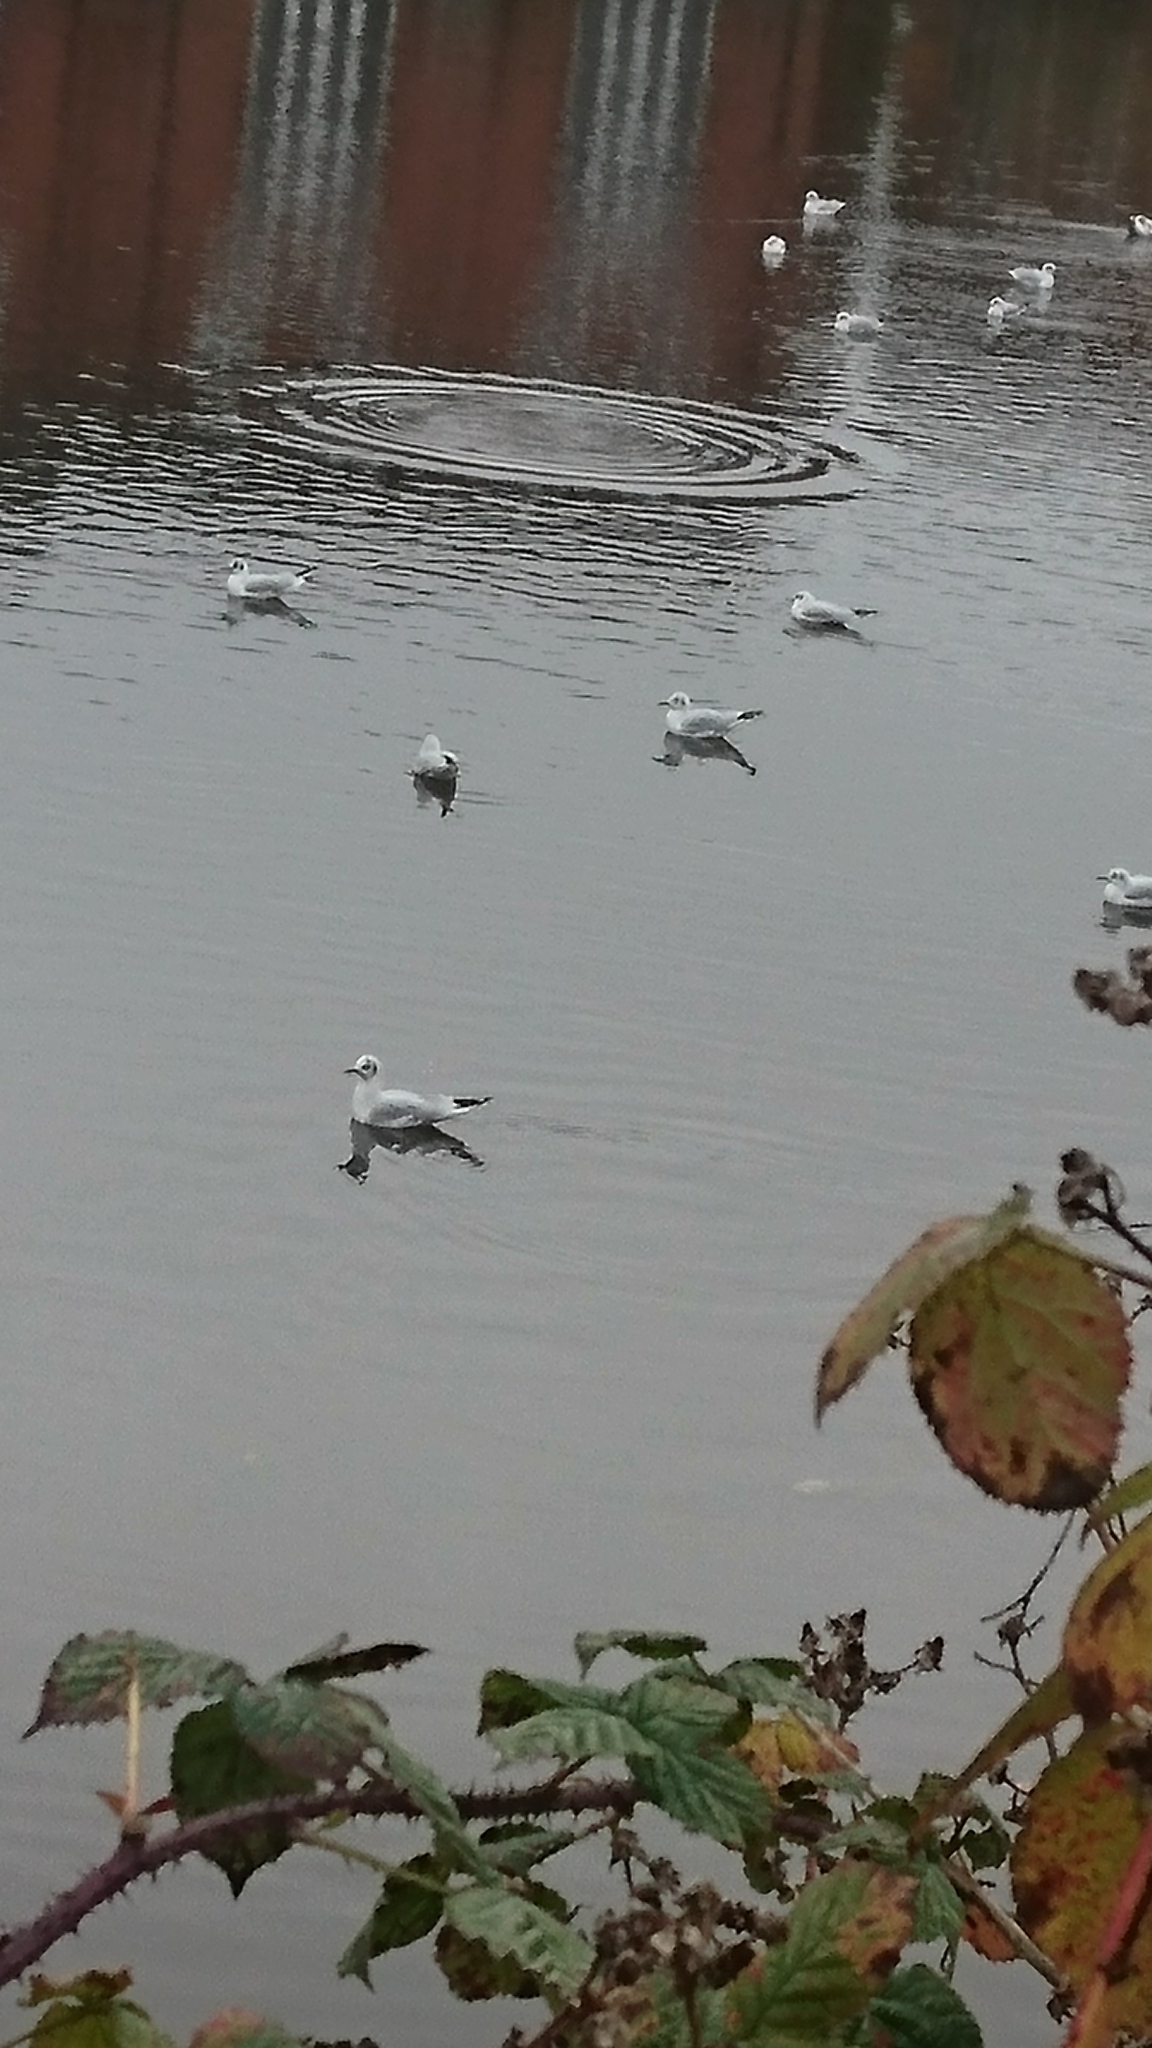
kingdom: Animalia
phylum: Chordata
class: Aves
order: Charadriiformes
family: Laridae
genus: Chroicocephalus
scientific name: Chroicocephalus ridibundus
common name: Black-headed gull
